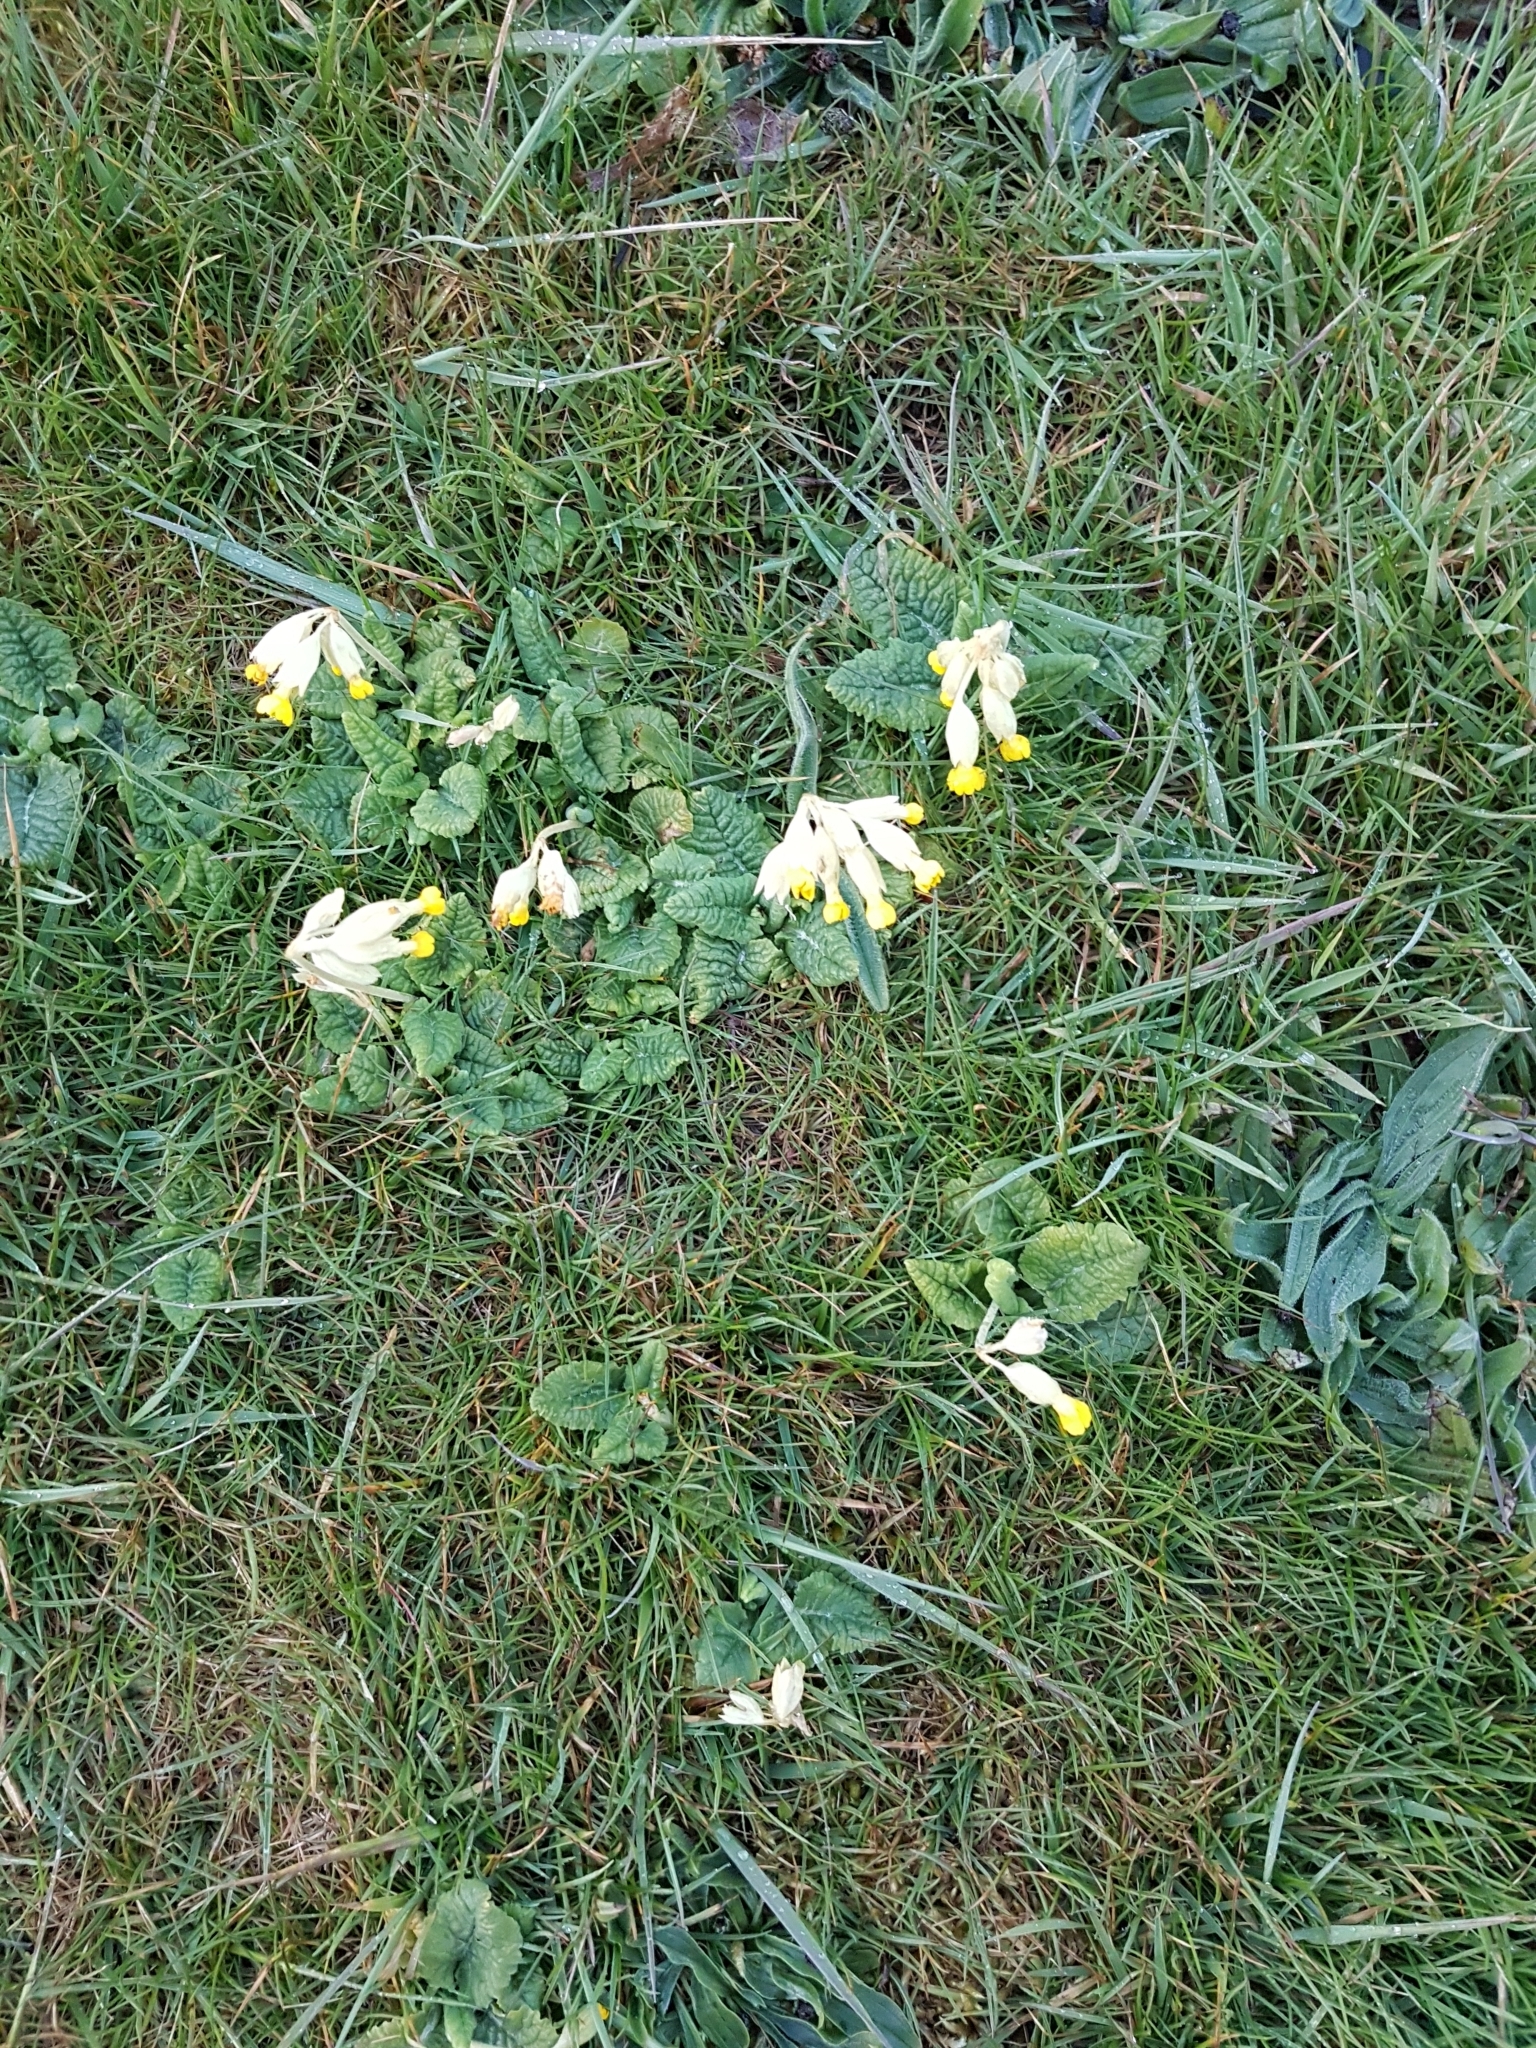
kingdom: Plantae
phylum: Tracheophyta
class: Magnoliopsida
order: Ericales
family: Primulaceae
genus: Primula
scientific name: Primula veris
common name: Cowslip
